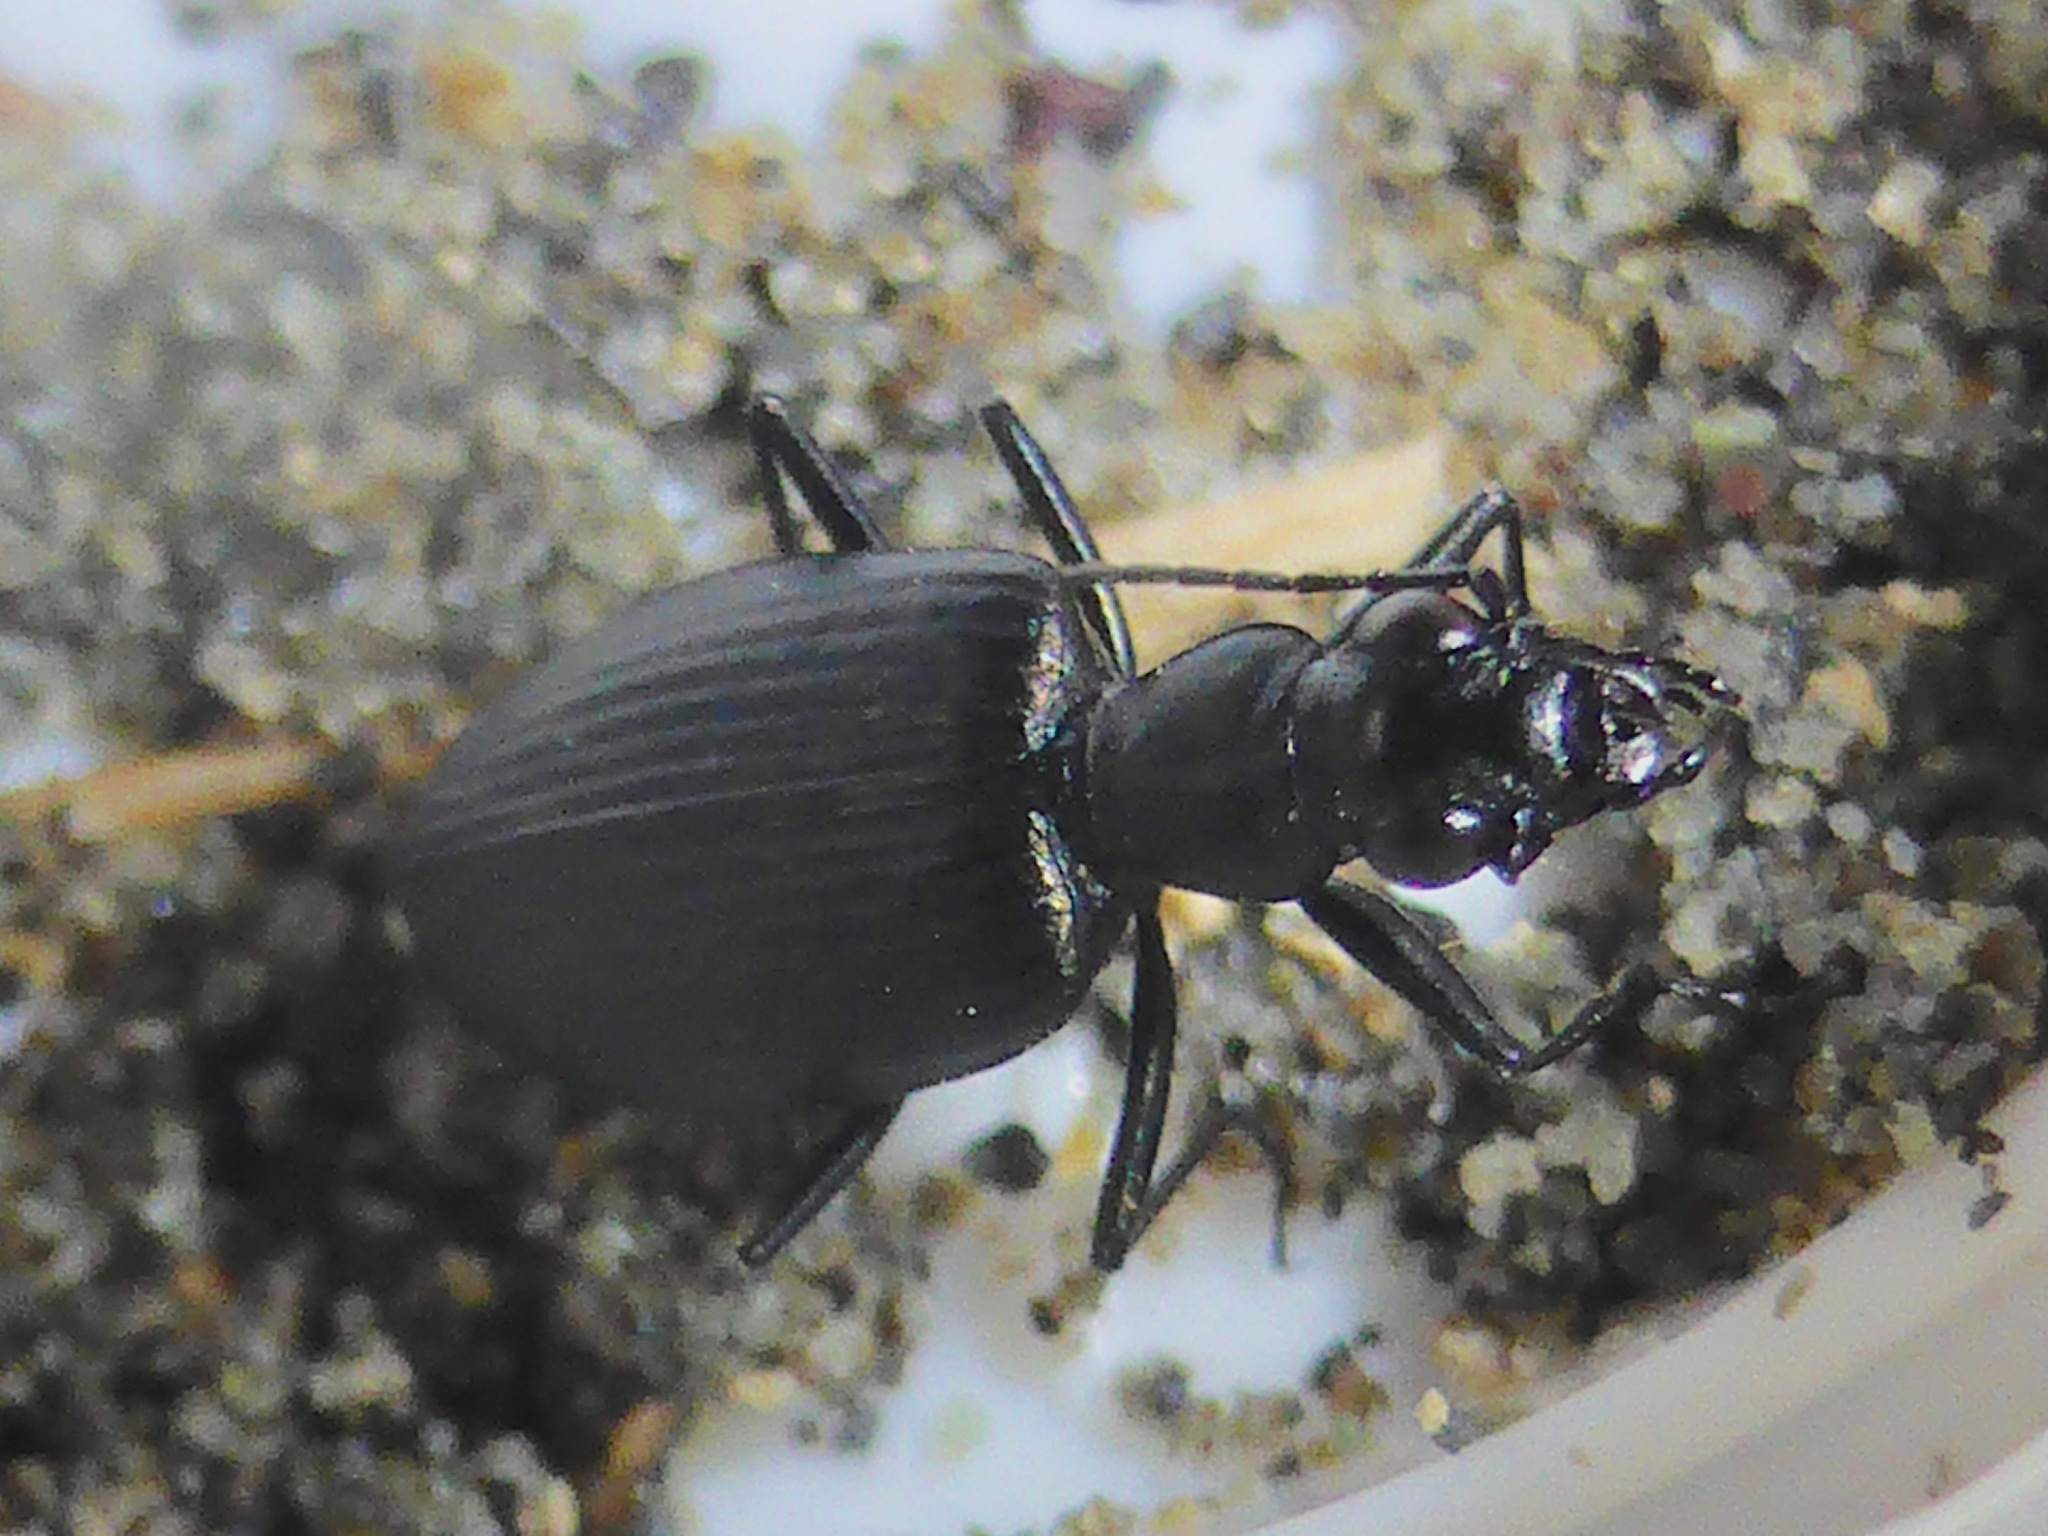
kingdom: Animalia
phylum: Arthropoda
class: Insecta
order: Coleoptera
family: Carabidae
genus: Actenonyx
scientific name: Actenonyx bembidioides
